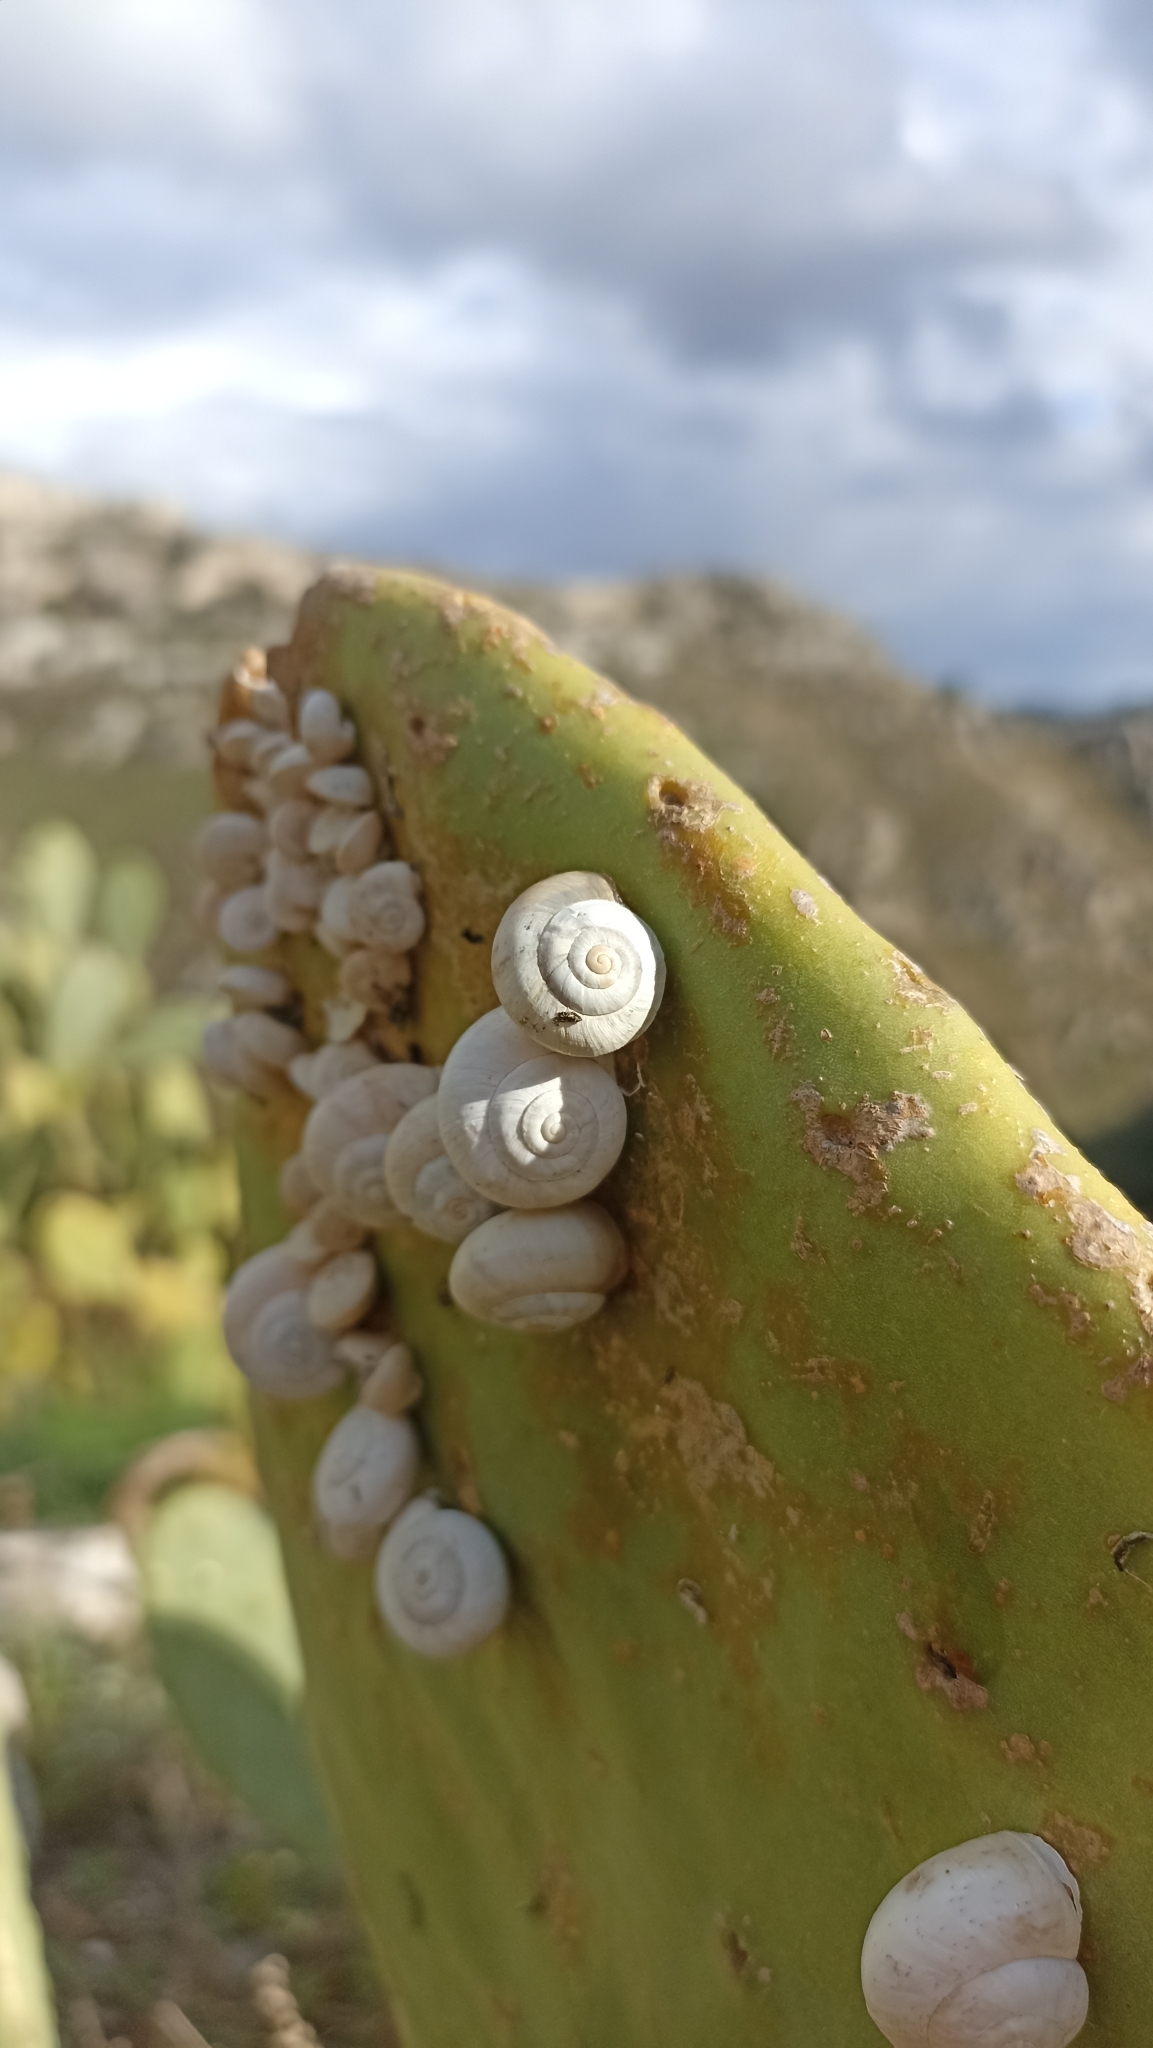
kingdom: Animalia
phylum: Mollusca
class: Gastropoda
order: Stylommatophora
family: Helicidae
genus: Theba
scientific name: Theba pisana
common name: White snail
